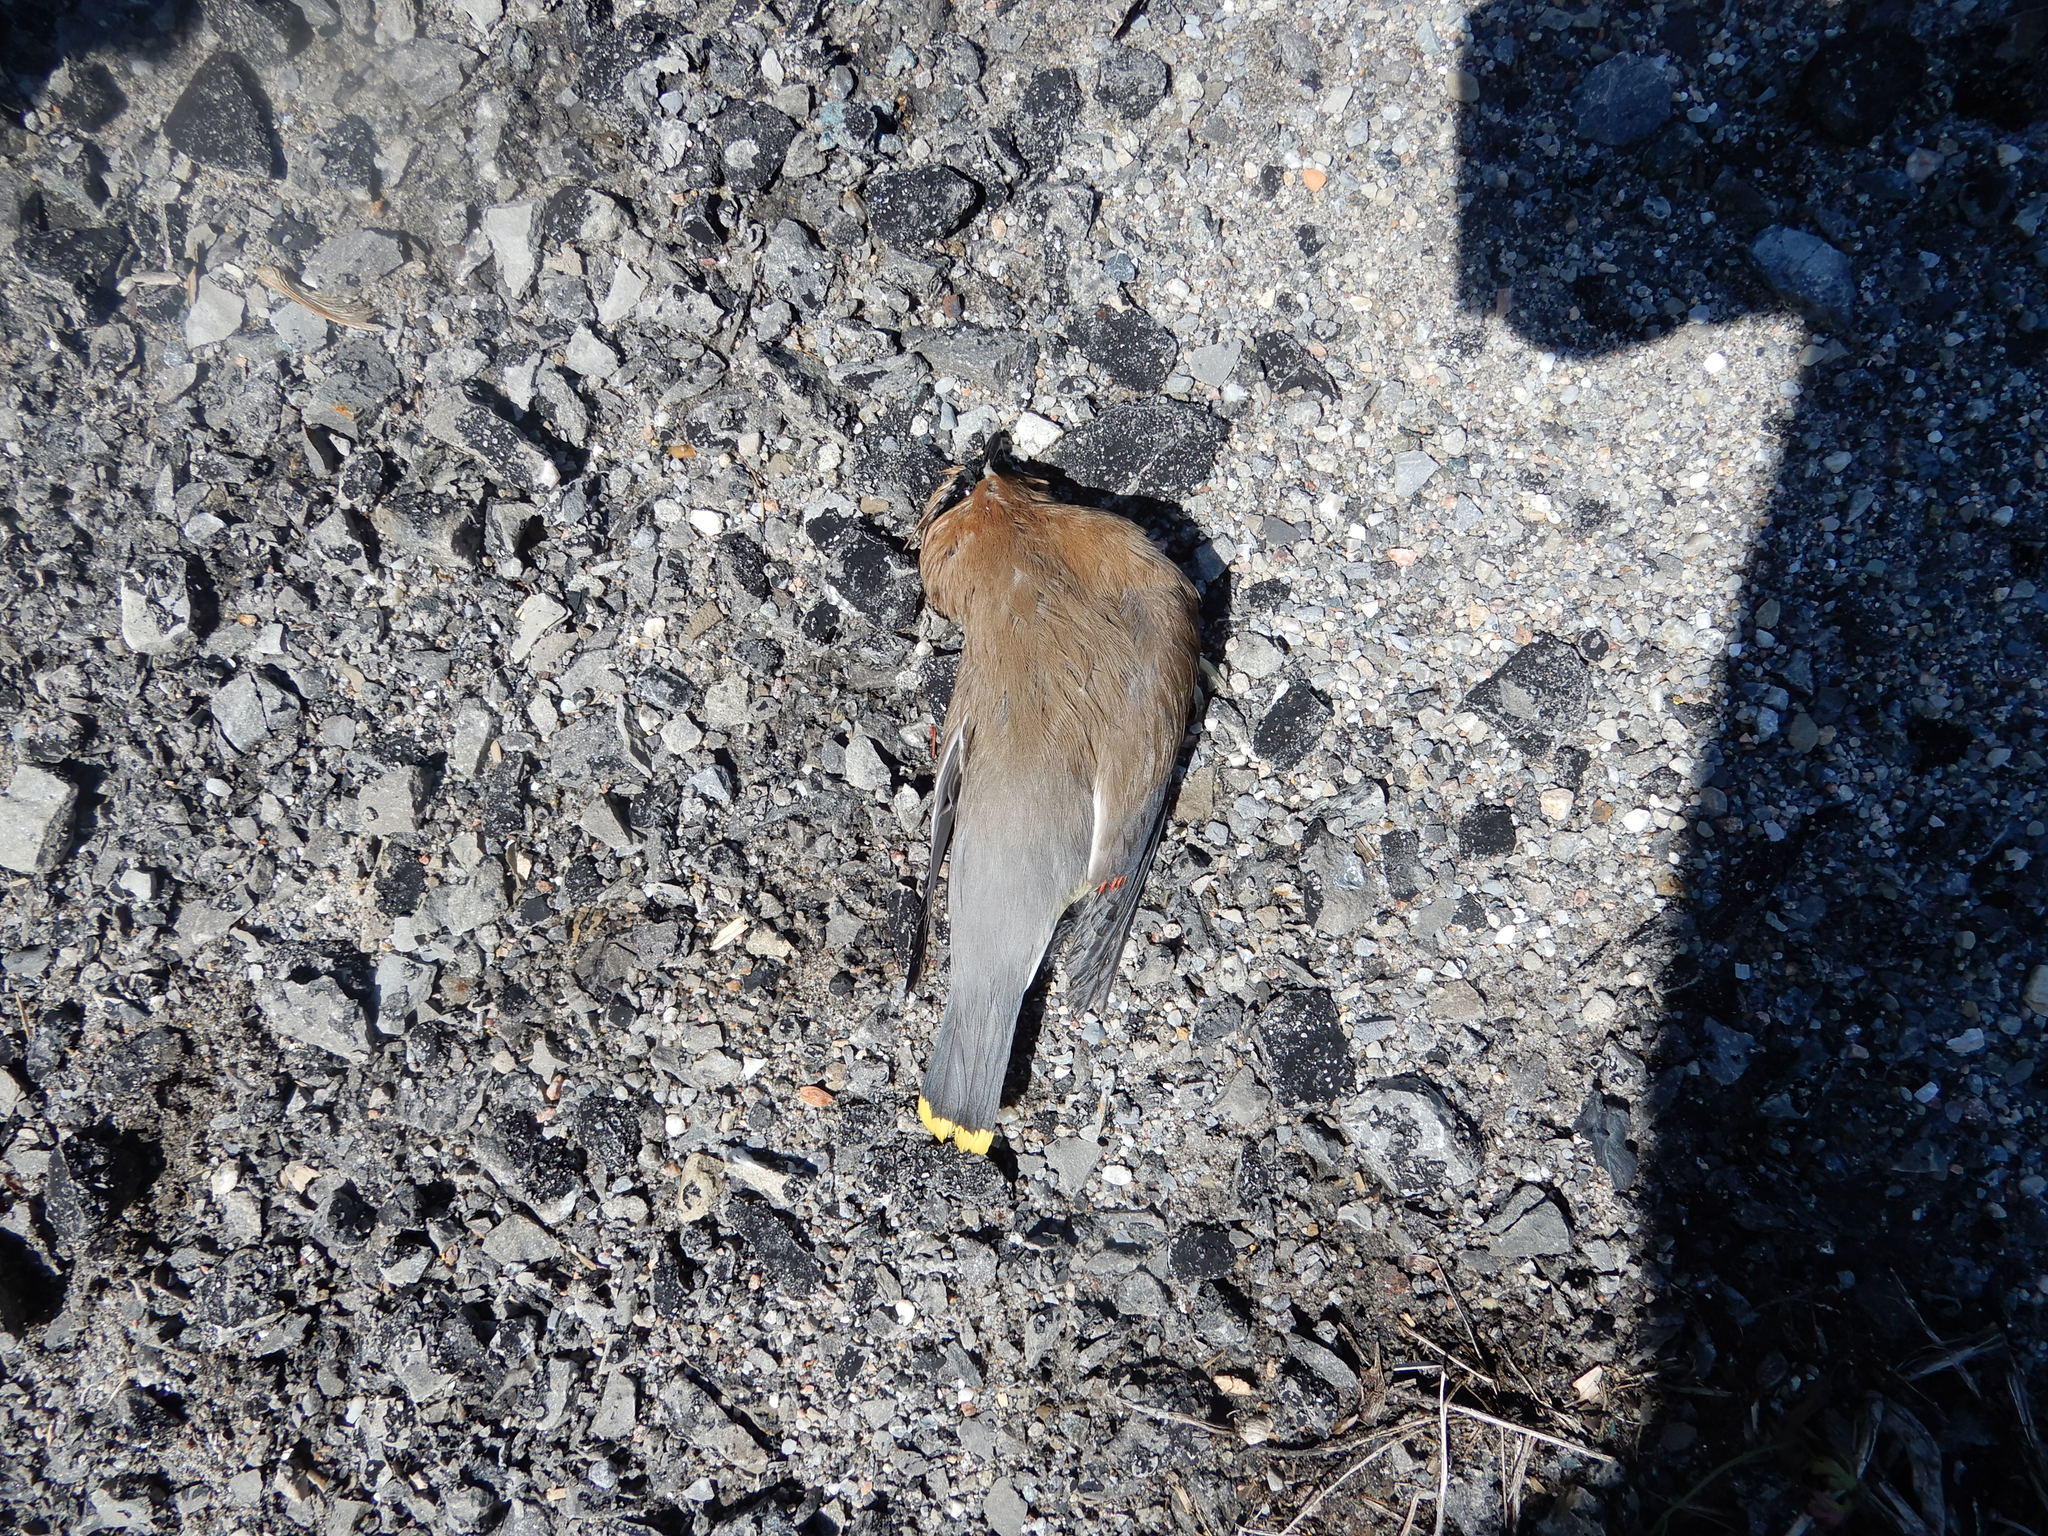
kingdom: Animalia
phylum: Chordata
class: Aves
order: Passeriformes
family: Bombycillidae
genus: Bombycilla
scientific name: Bombycilla cedrorum
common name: Cedar waxwing
